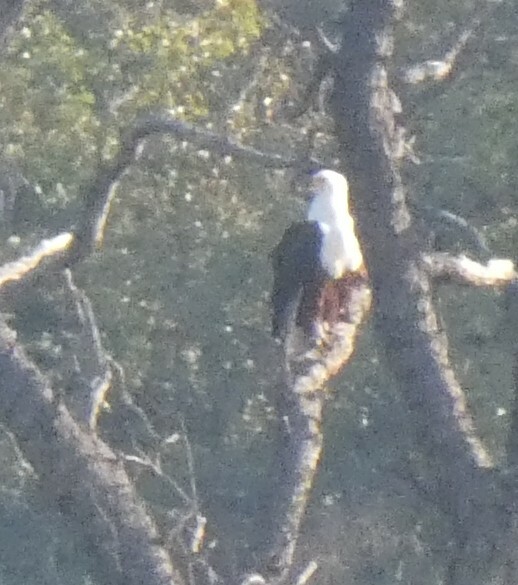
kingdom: Animalia
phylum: Chordata
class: Aves
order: Accipitriformes
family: Accipitridae
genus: Haliaeetus
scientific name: Haliaeetus vocifer
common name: African fish eagle
